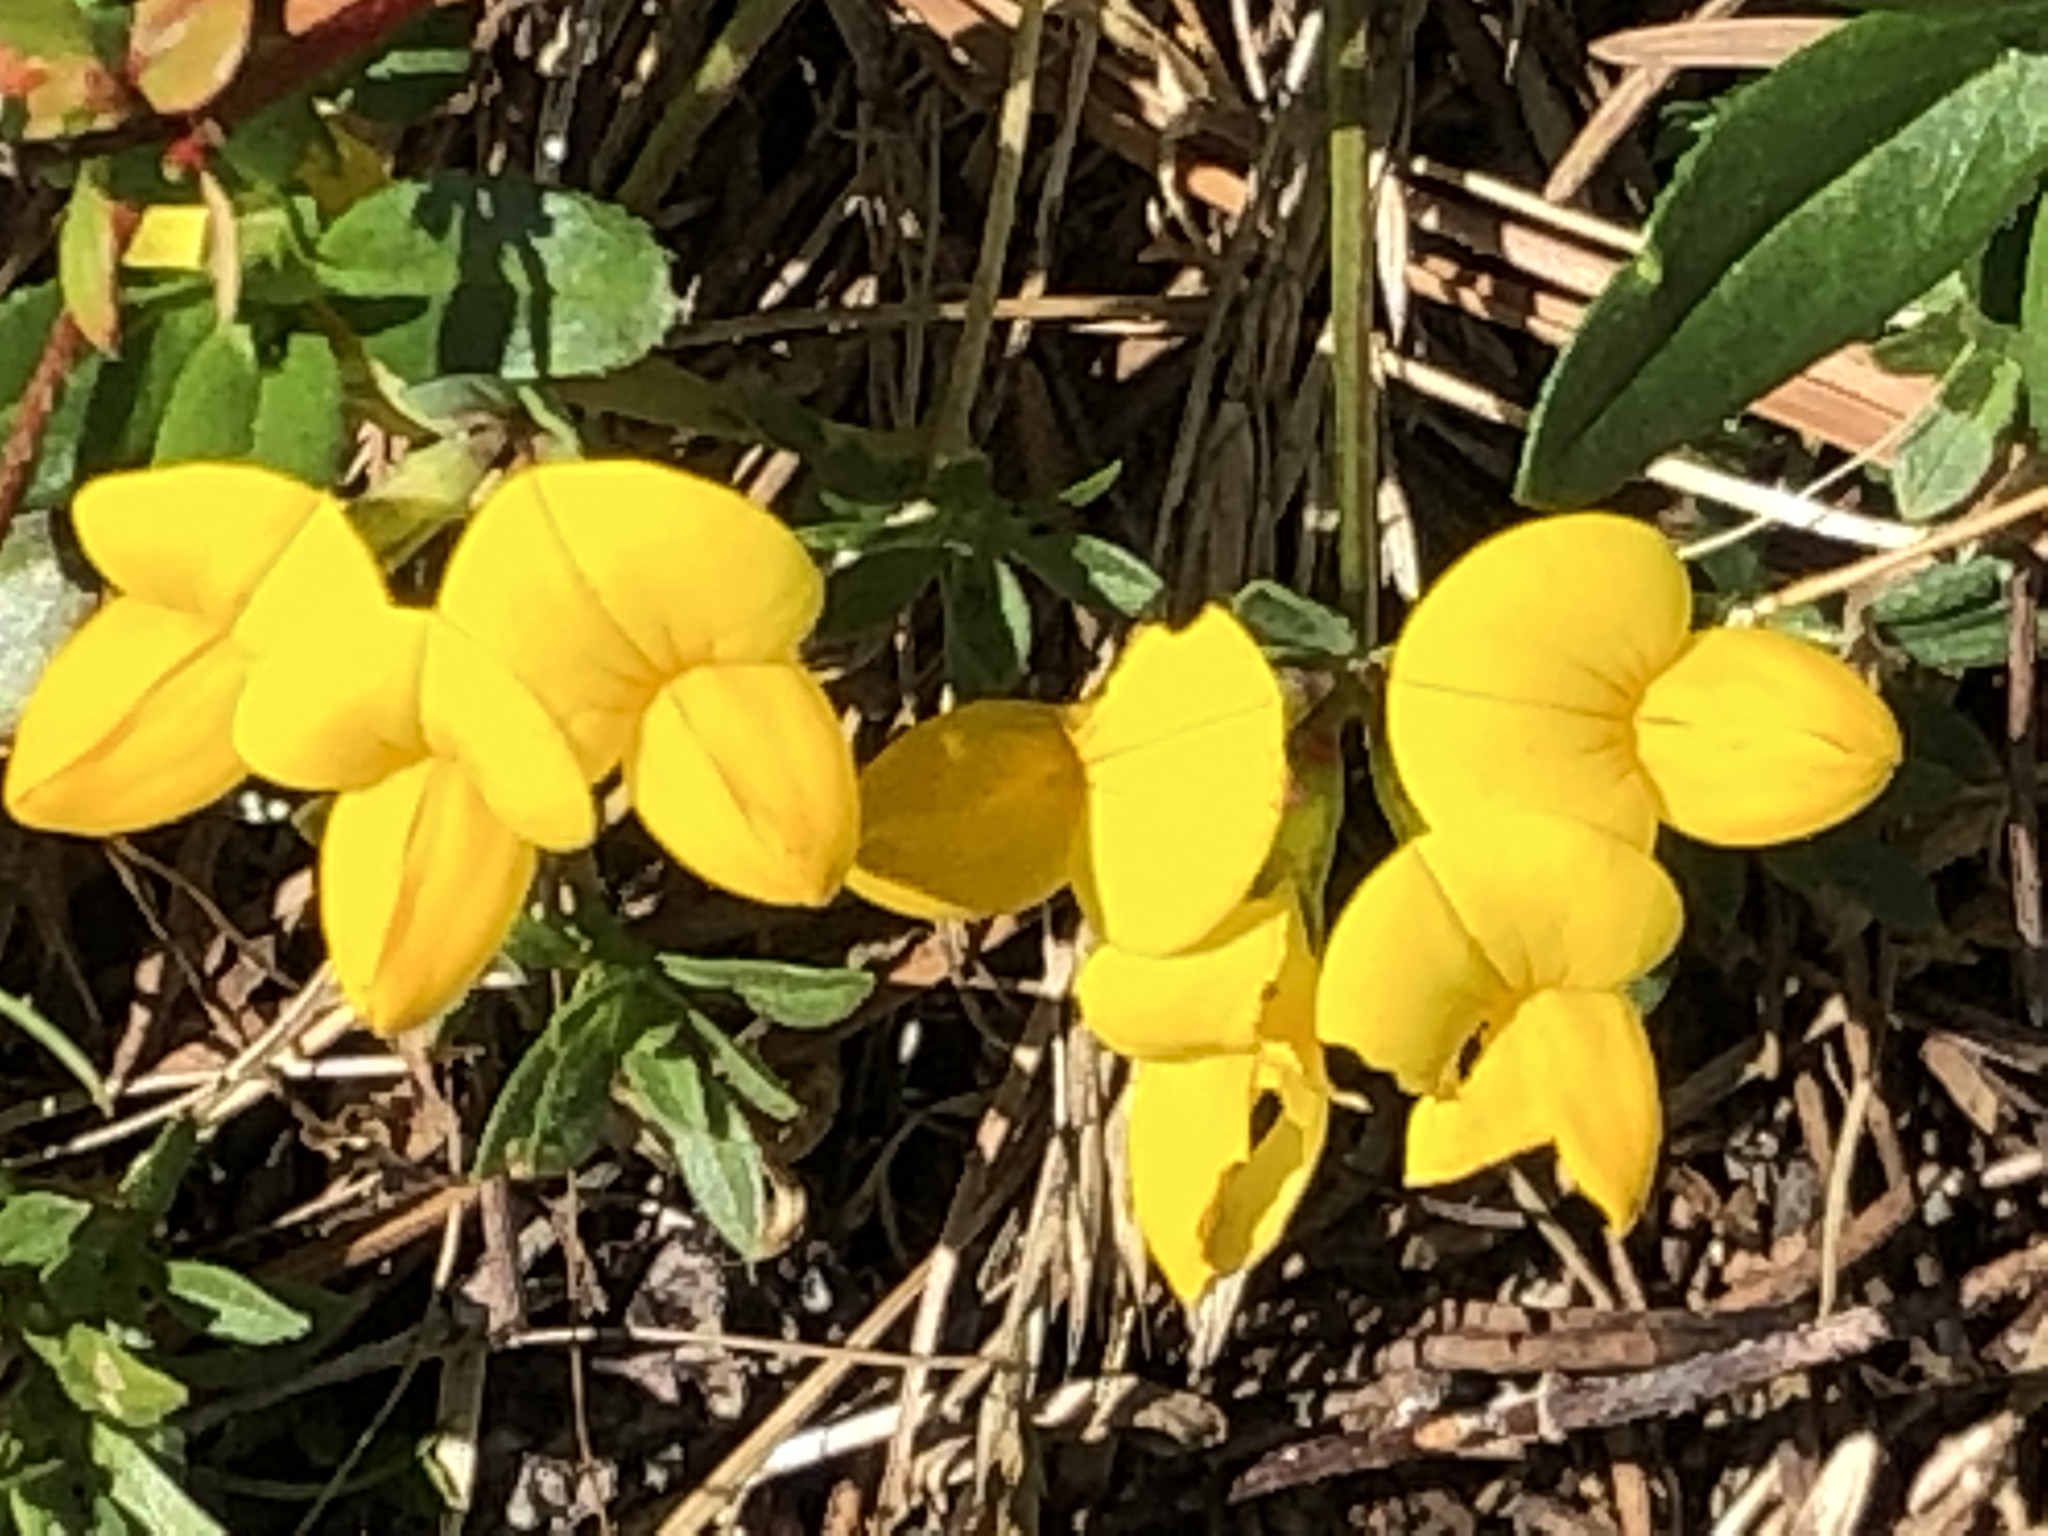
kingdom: Plantae
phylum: Tracheophyta
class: Magnoliopsida
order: Fabales
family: Fabaceae
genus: Lotus
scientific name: Lotus corniculatus
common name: Common bird's-foot-trefoil
